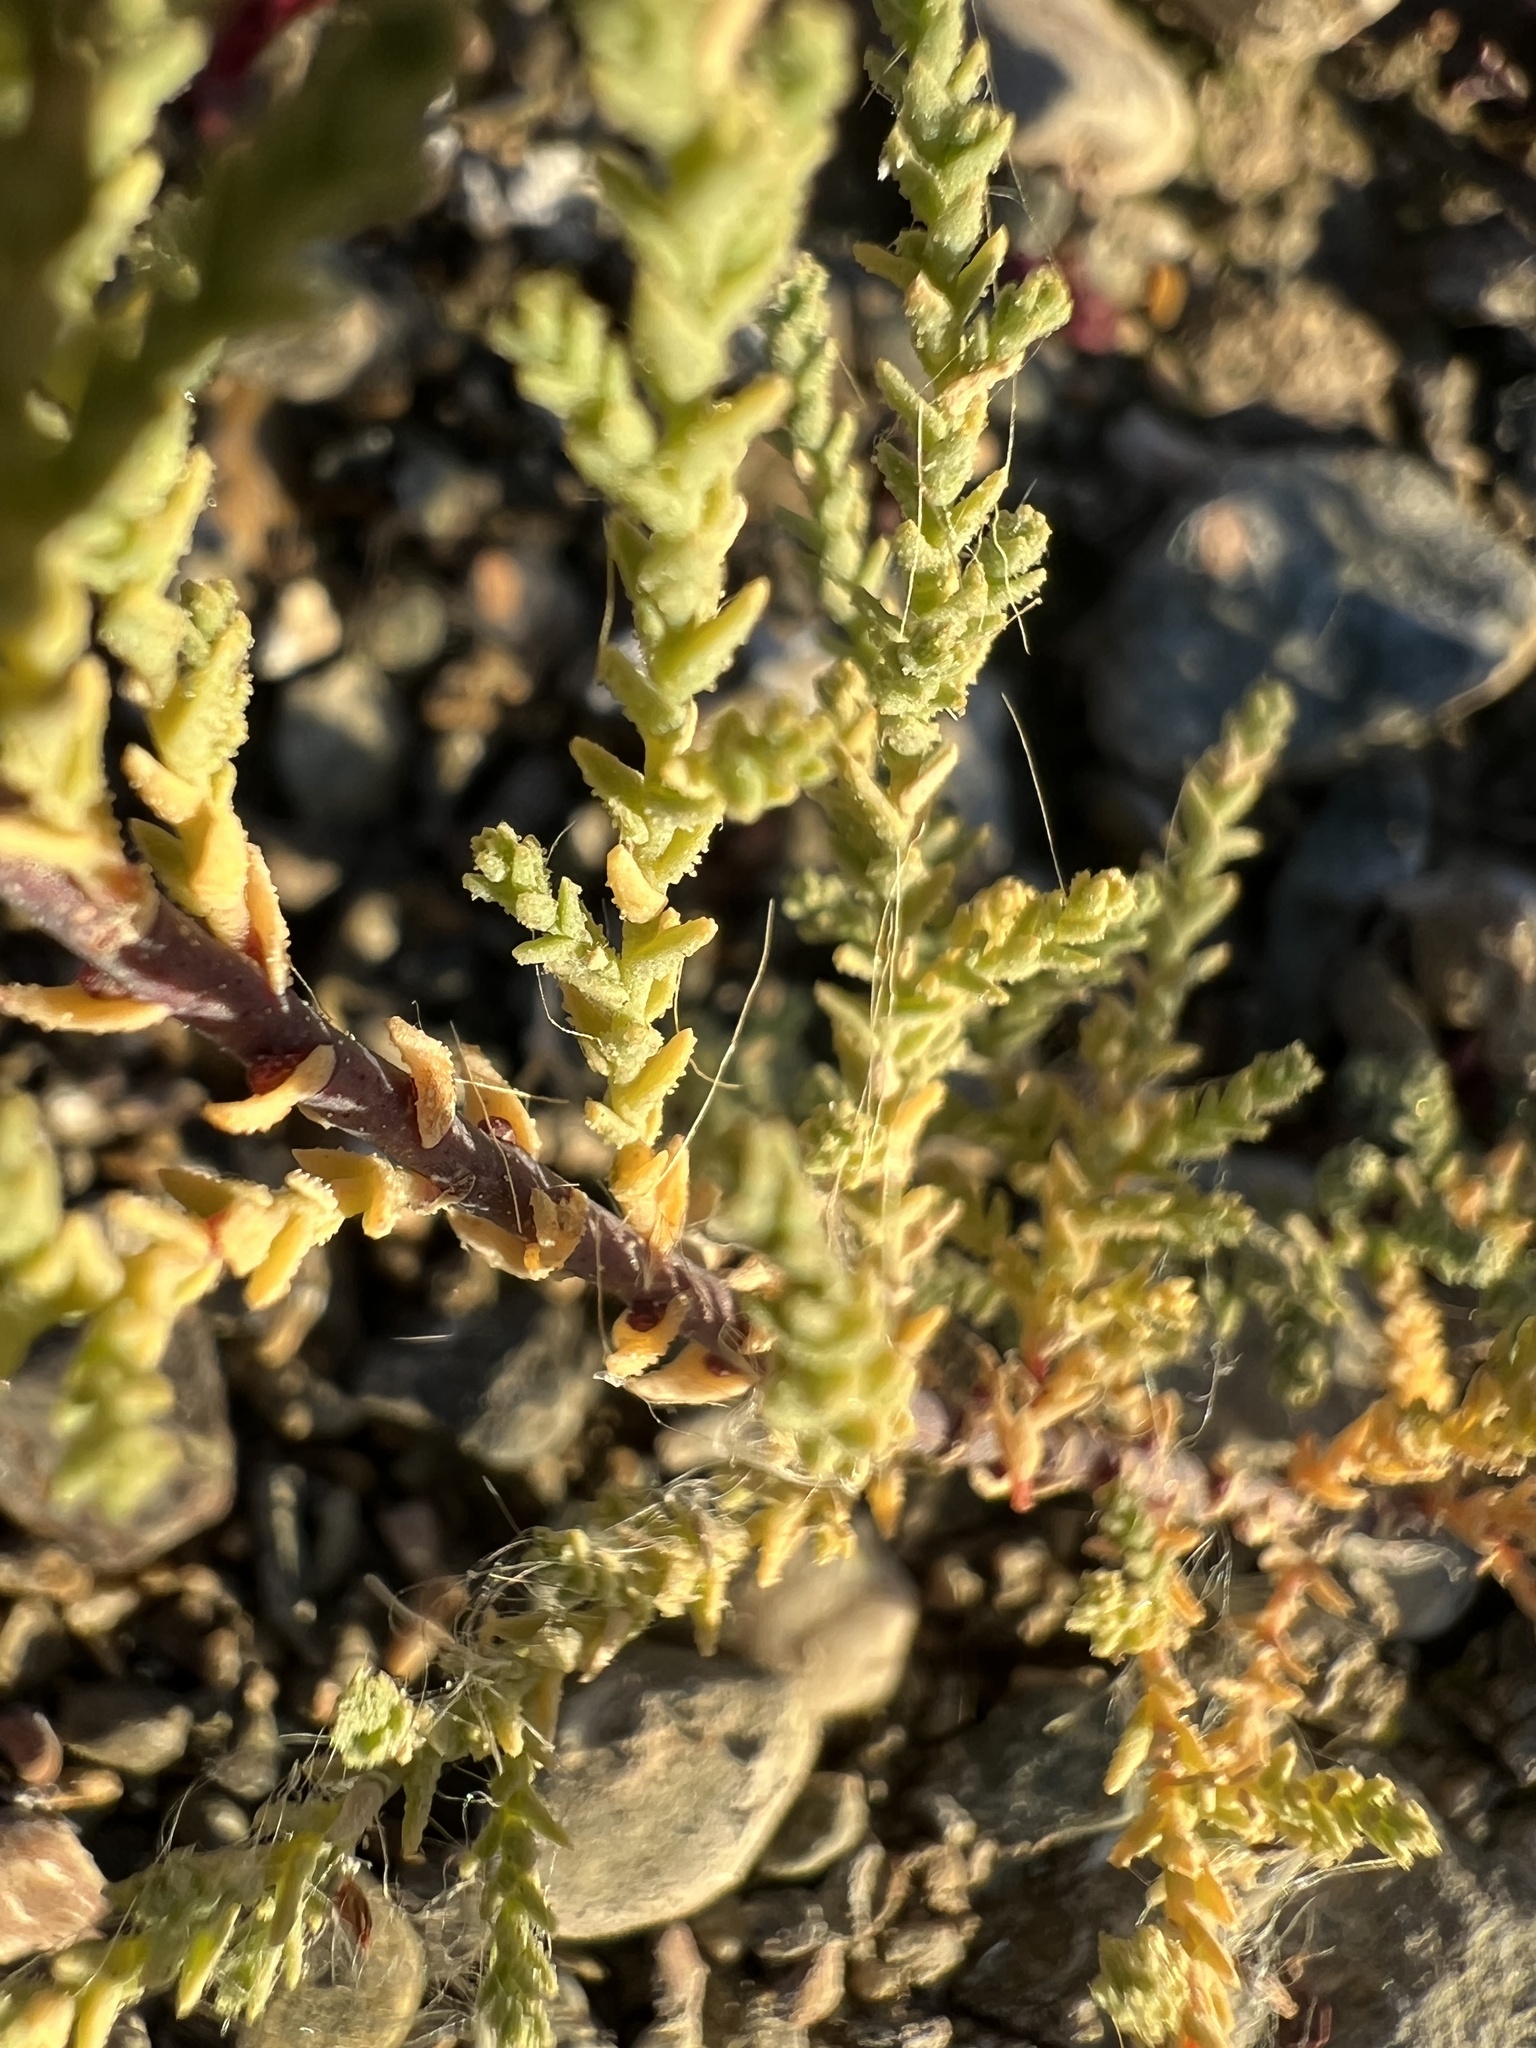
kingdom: Plantae
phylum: Tracheophyta
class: Magnoliopsida
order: Caryophyllales
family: Tamaricaceae
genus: Tamarix
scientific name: Tamarix
